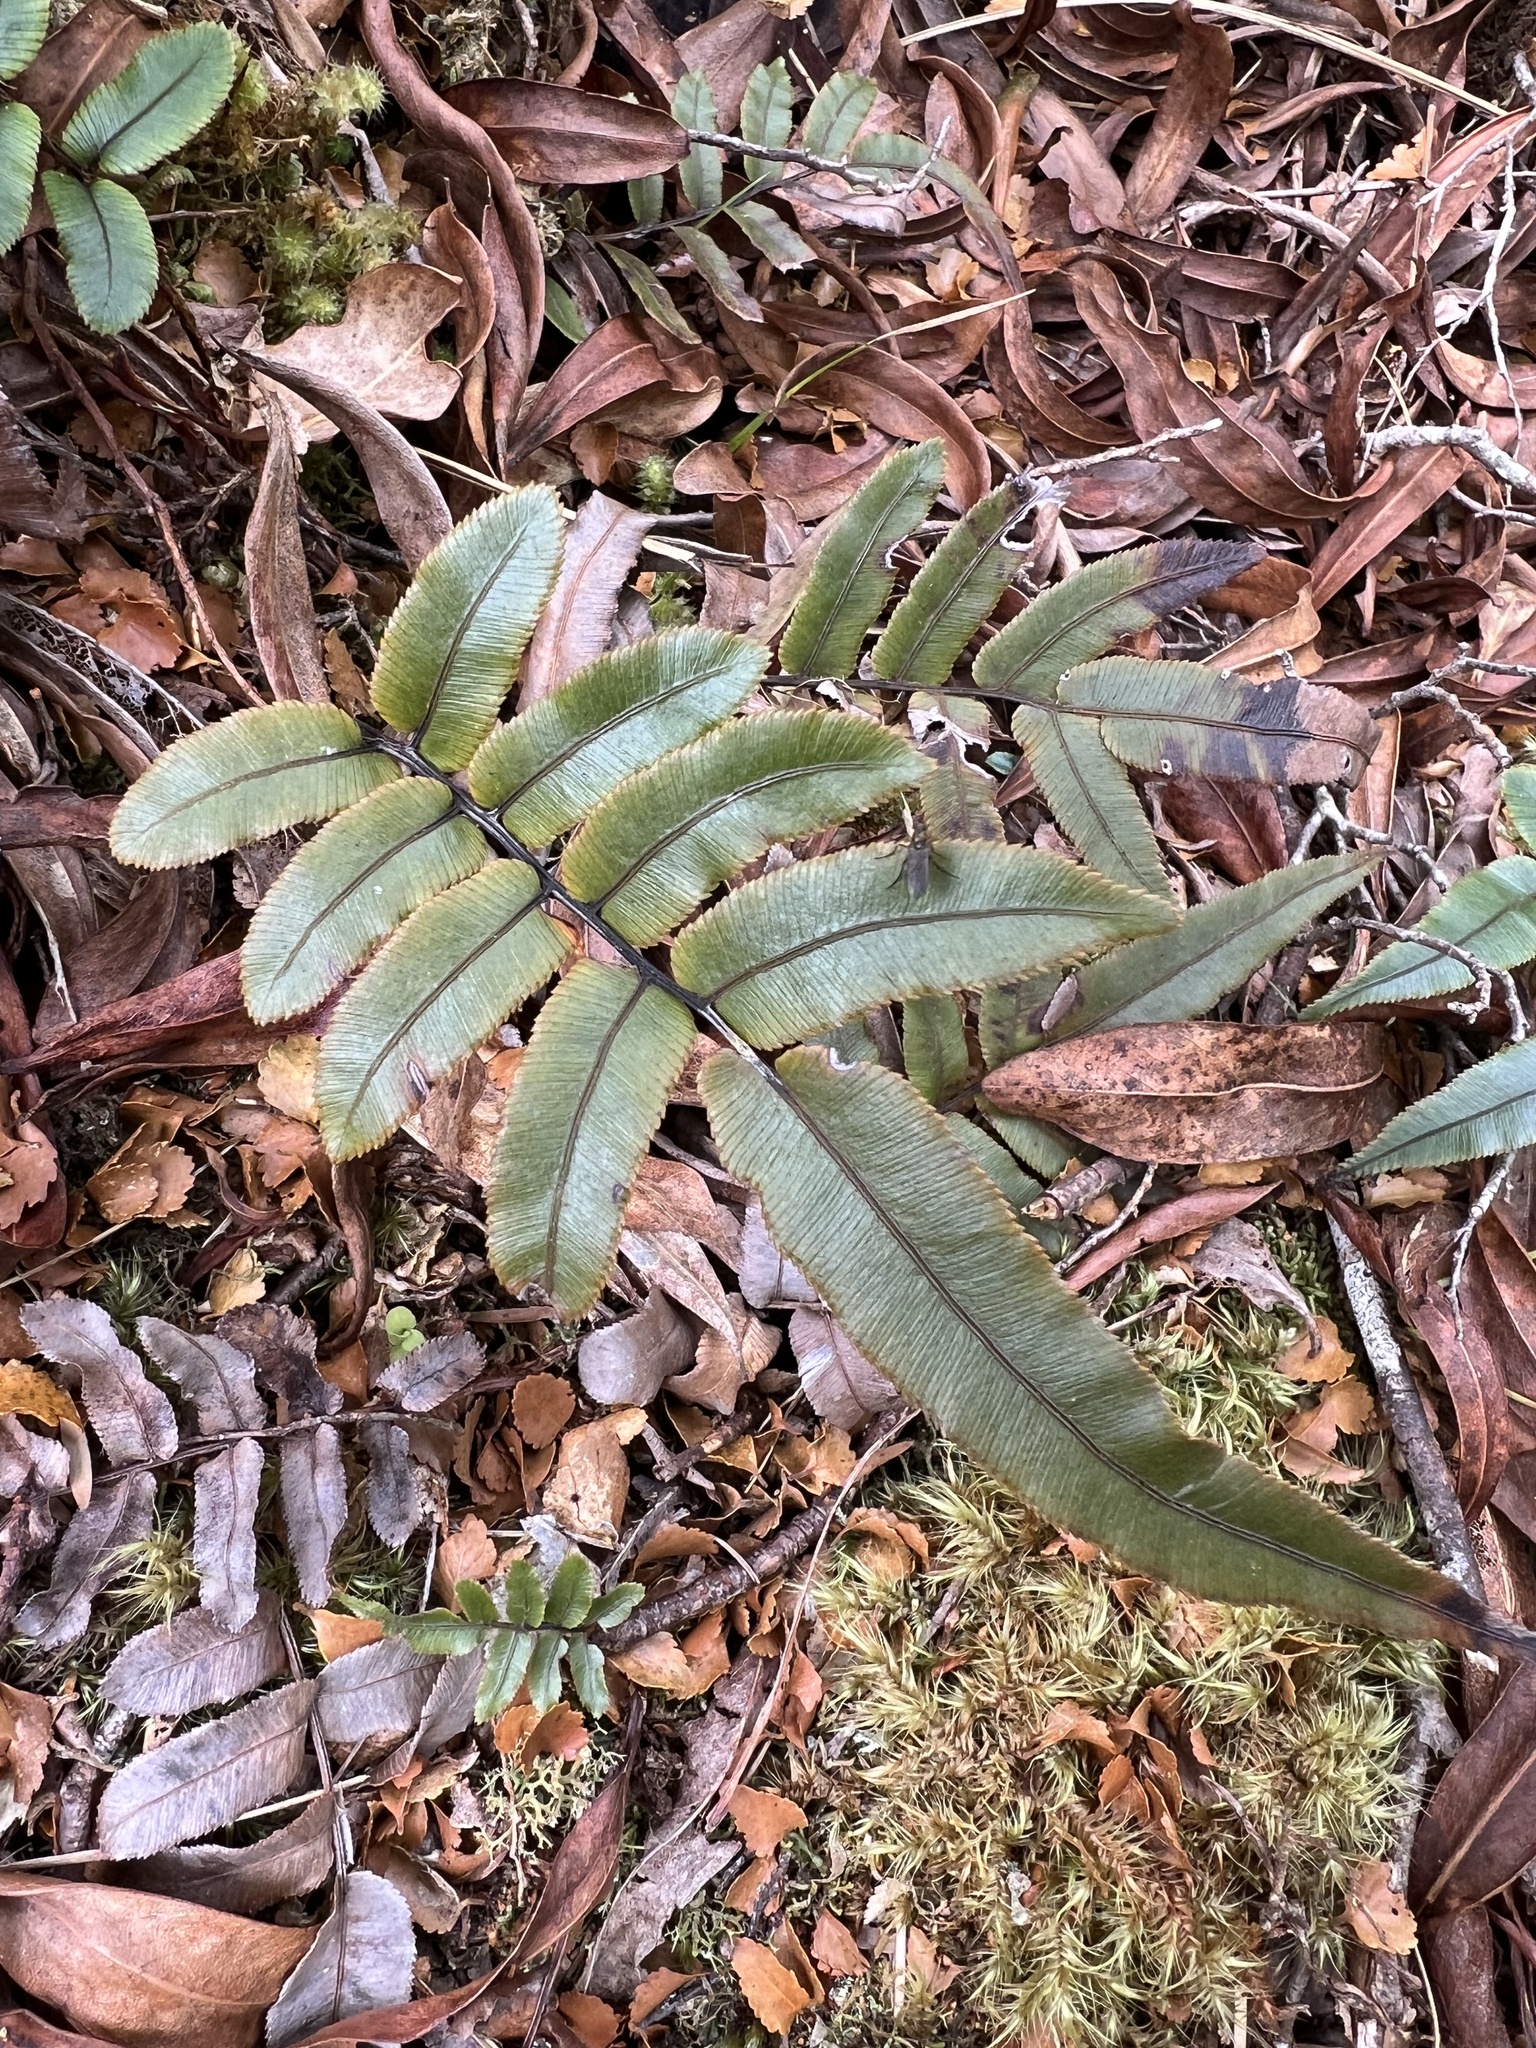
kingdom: Plantae
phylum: Tracheophyta
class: Polypodiopsida
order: Polypodiales
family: Blechnaceae
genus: Parablechnum
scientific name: Parablechnum procerum
